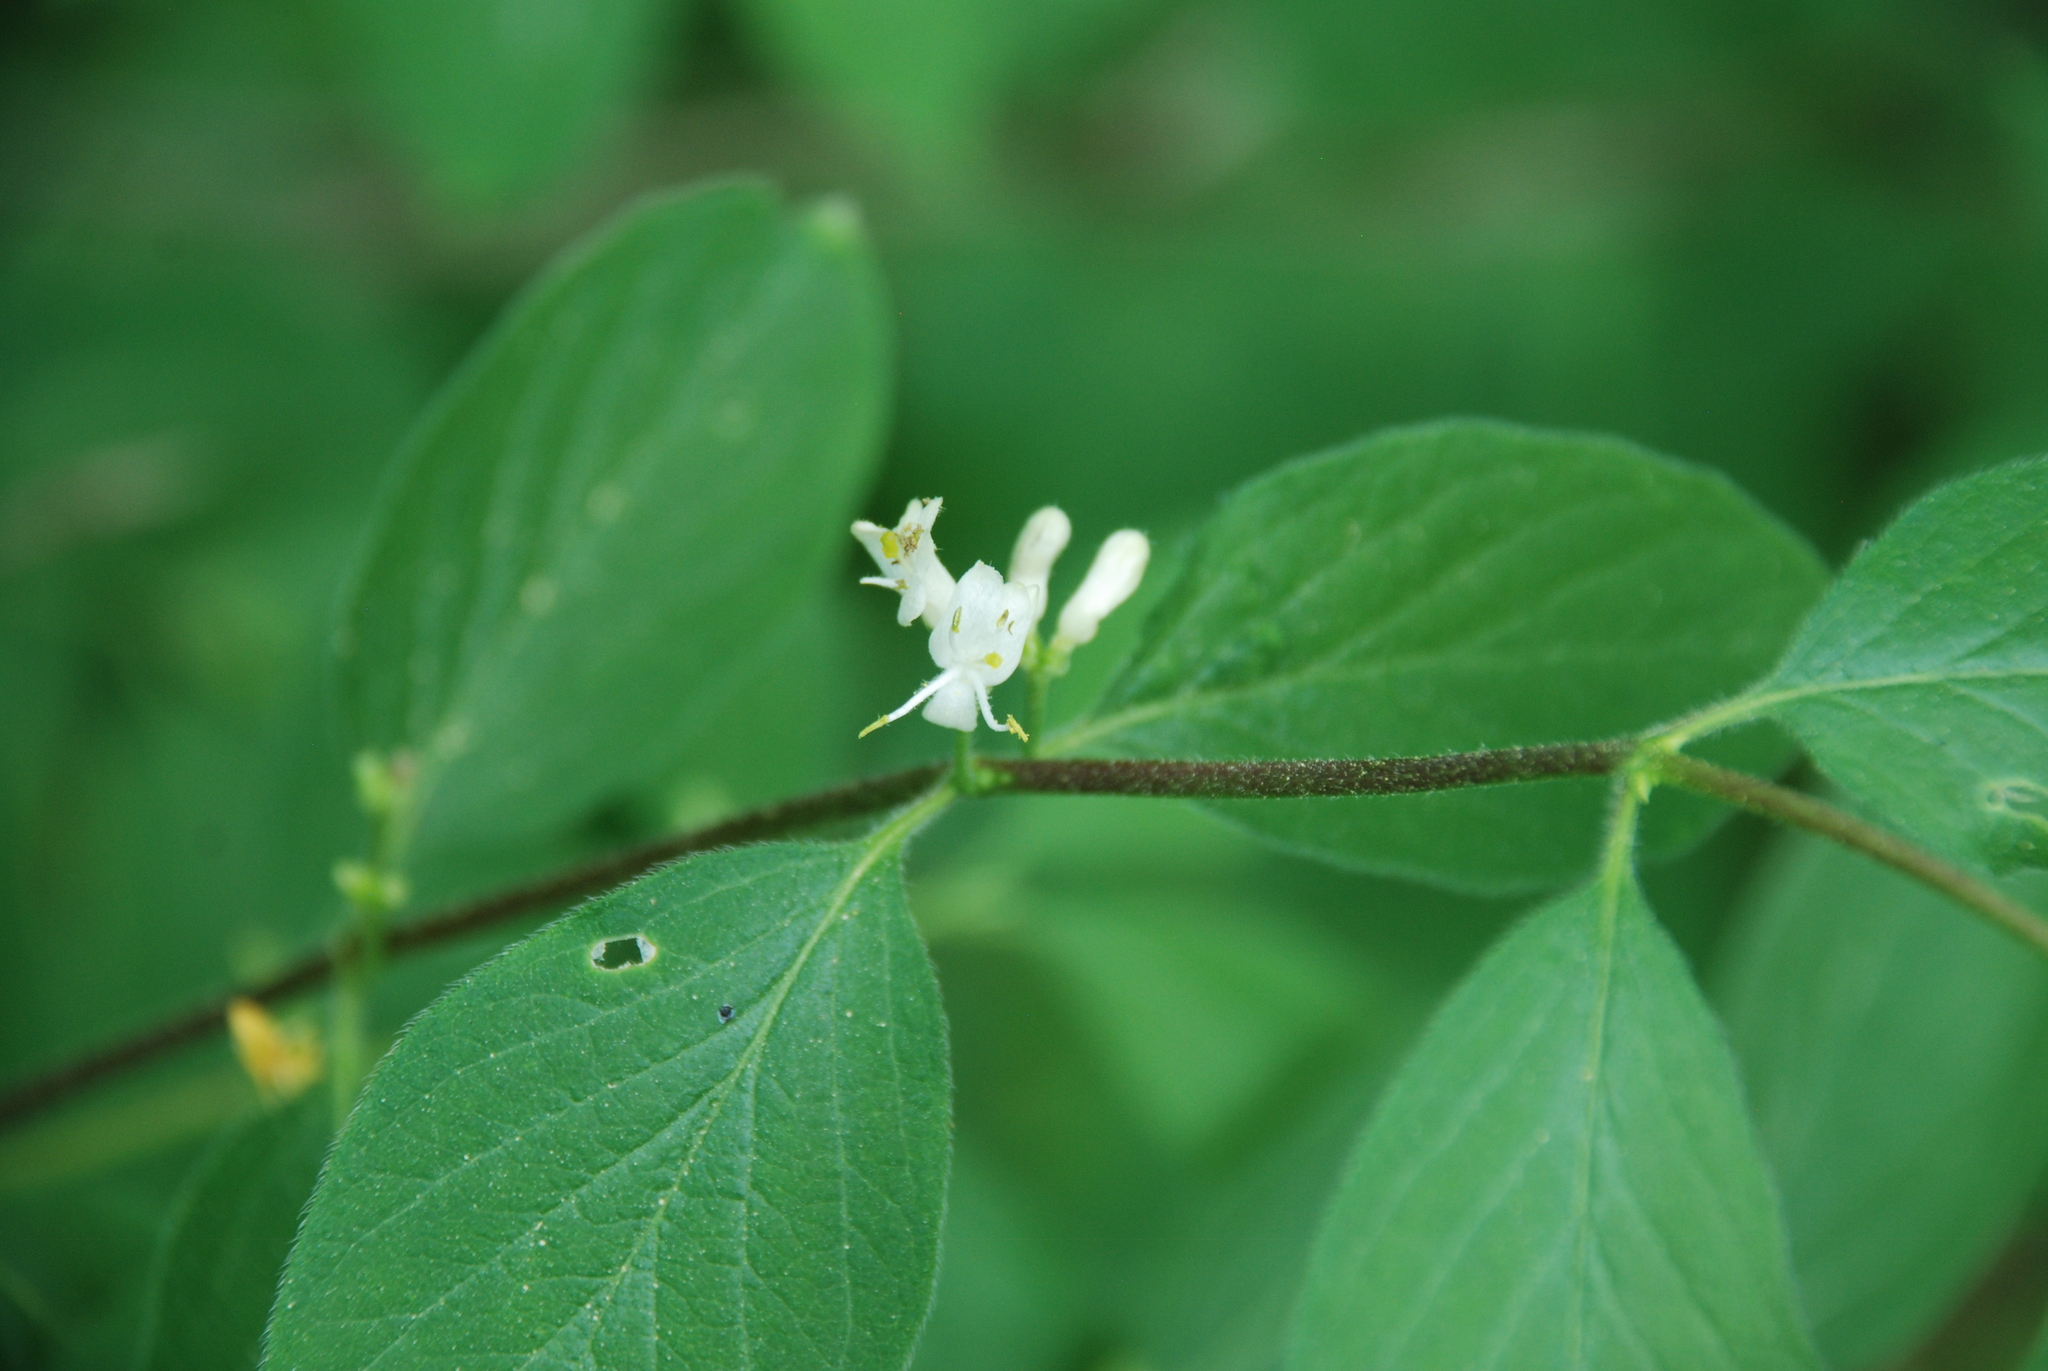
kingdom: Plantae
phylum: Tracheophyta
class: Magnoliopsida
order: Dipsacales
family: Caprifoliaceae
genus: Lonicera
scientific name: Lonicera xylosteum
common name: Fly honeysuckle
